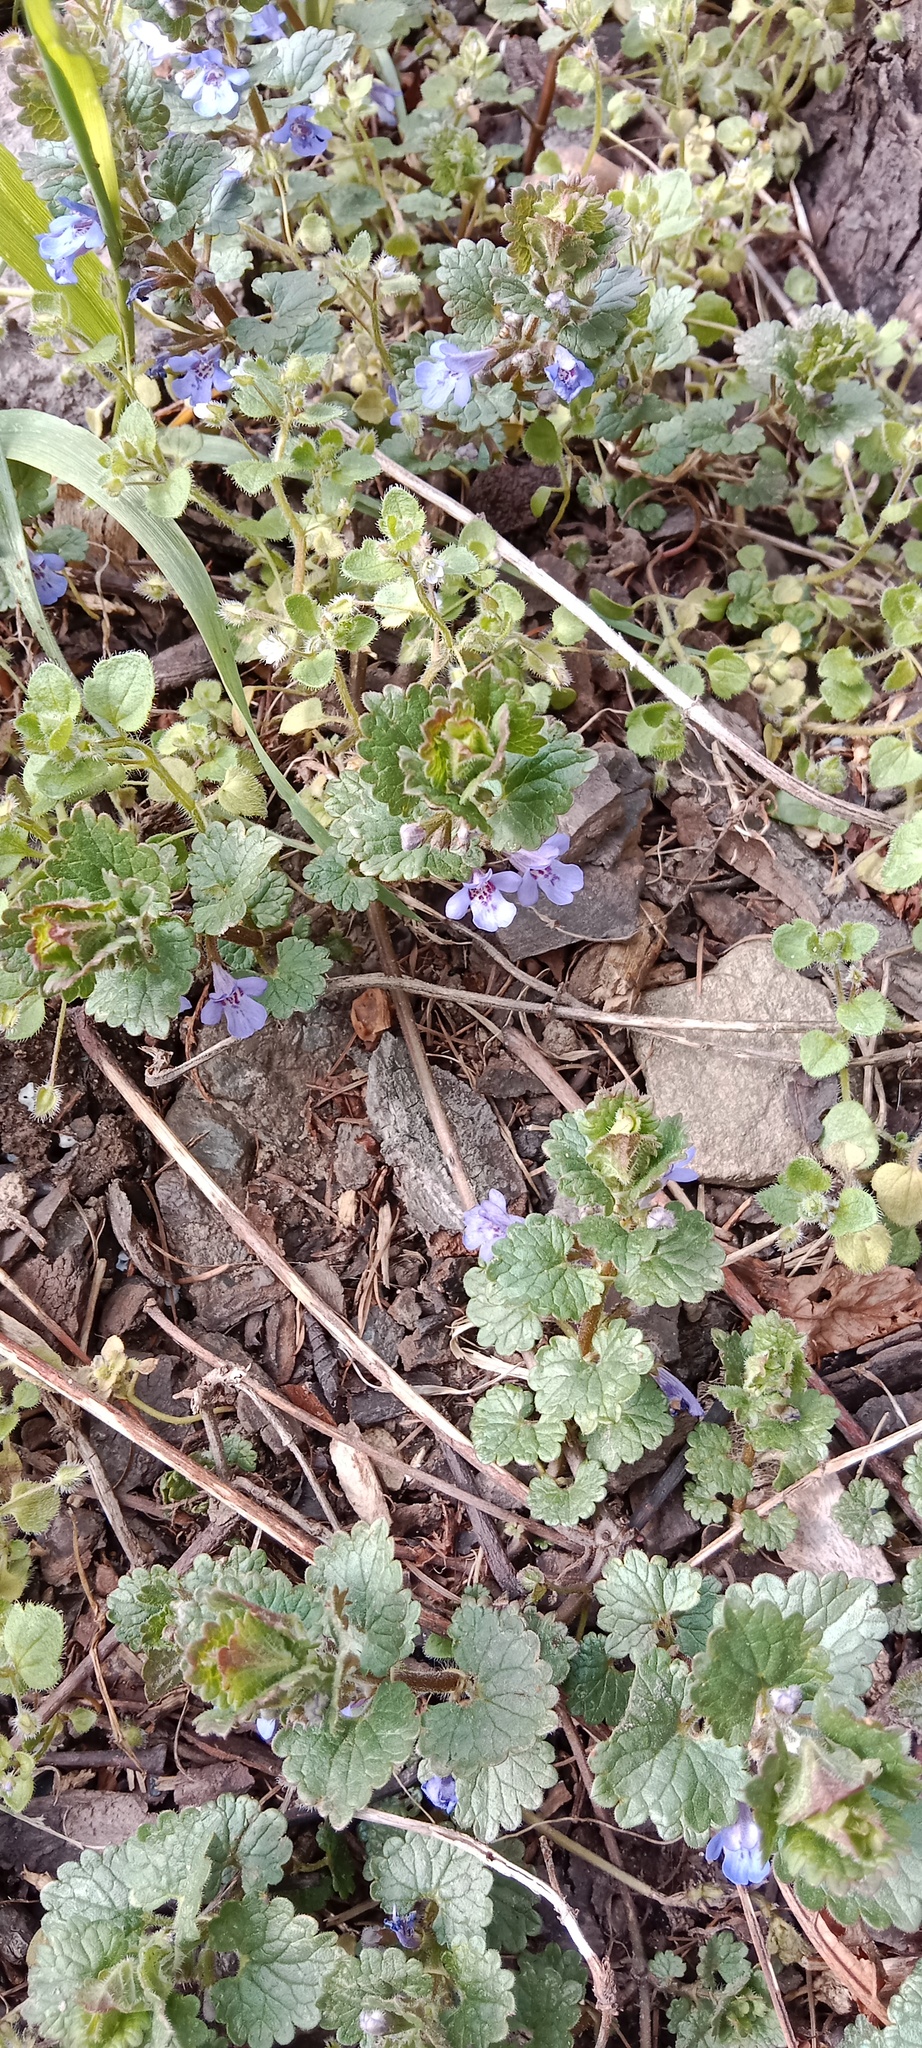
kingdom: Plantae
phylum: Tracheophyta
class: Magnoliopsida
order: Lamiales
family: Lamiaceae
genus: Glechoma
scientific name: Glechoma hederacea
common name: Ground ivy
